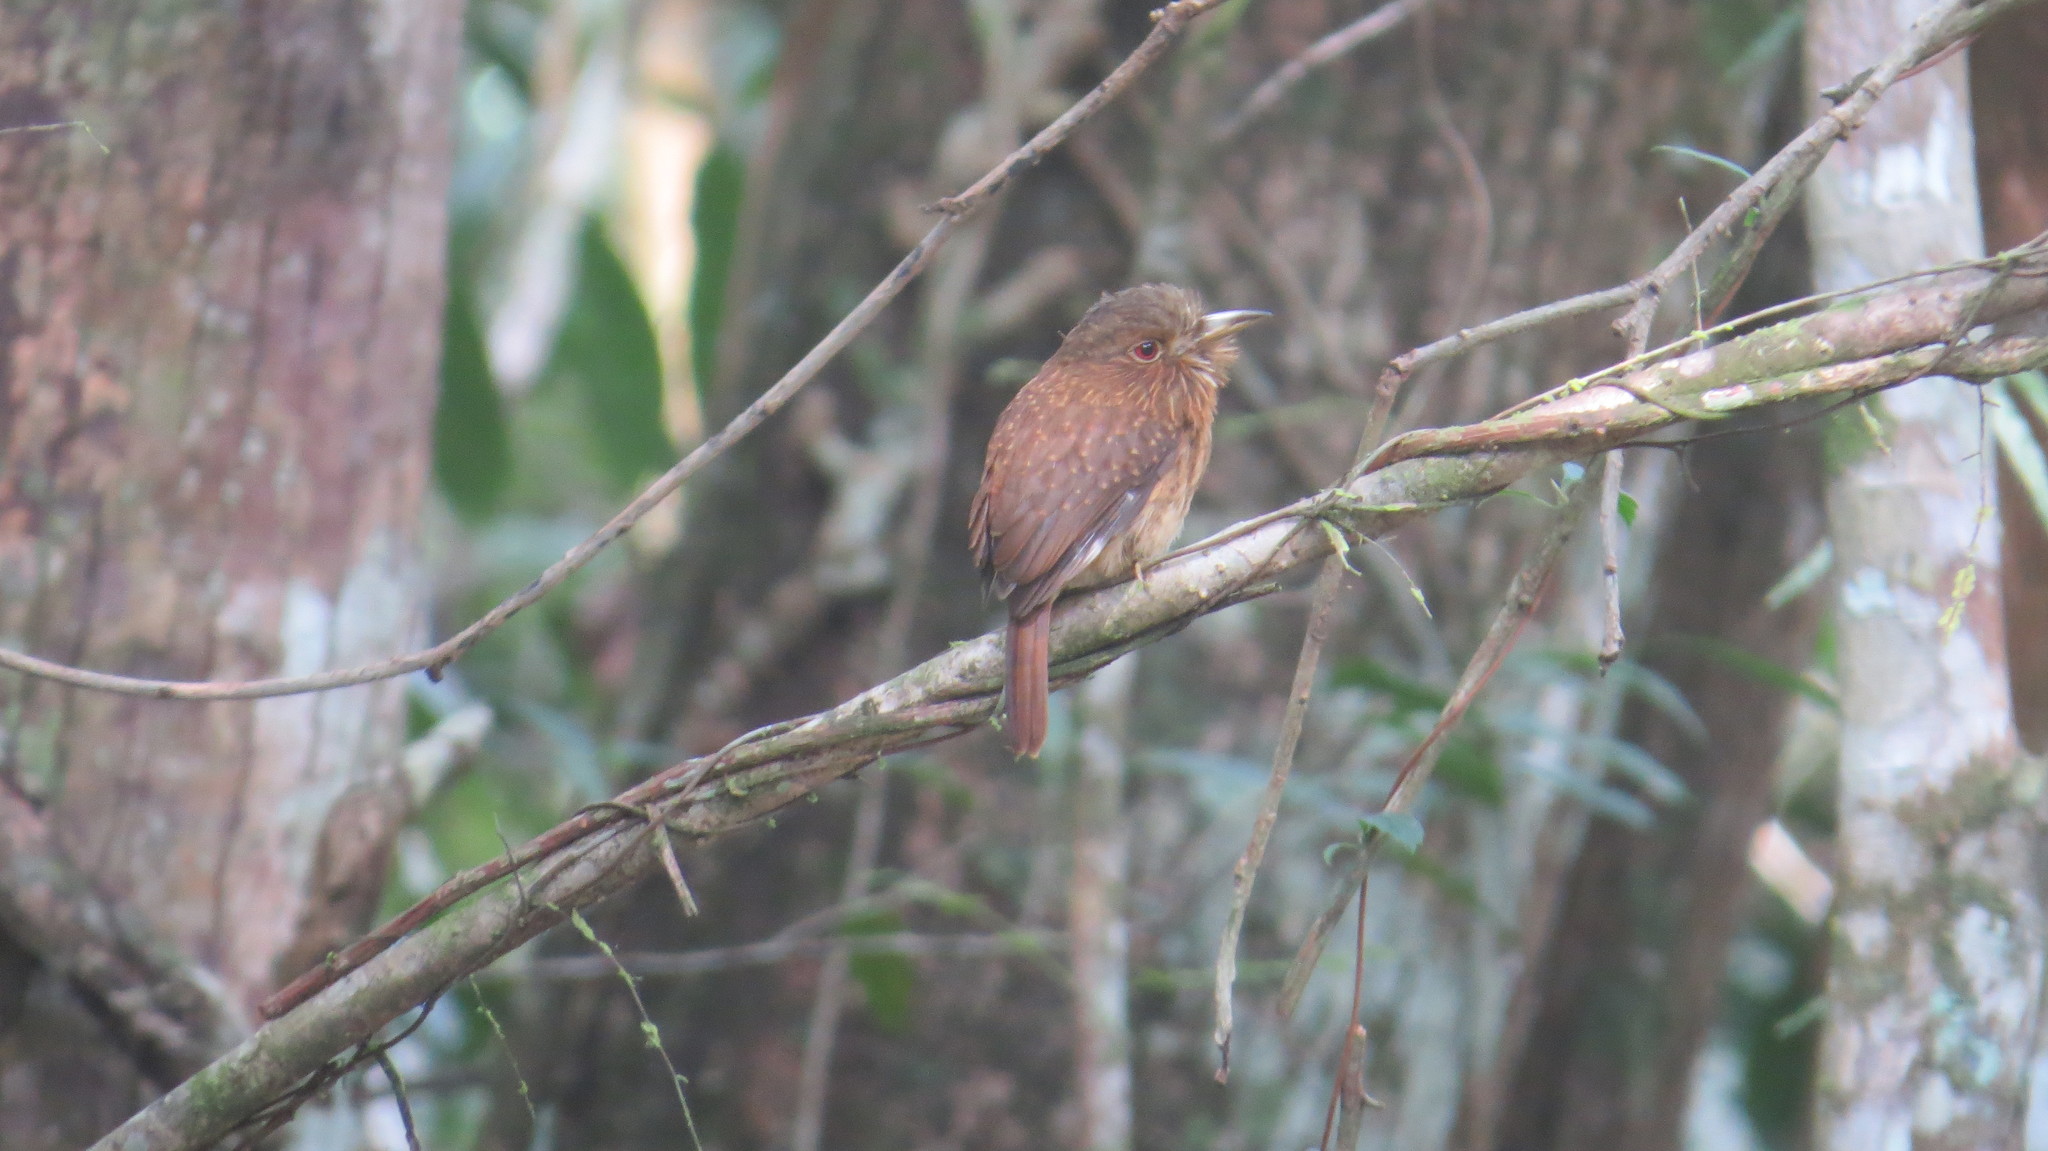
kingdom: Animalia
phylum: Chordata
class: Aves
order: Piciformes
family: Bucconidae
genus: Malacoptila
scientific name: Malacoptila panamensis
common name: White-whiskered puffbird
